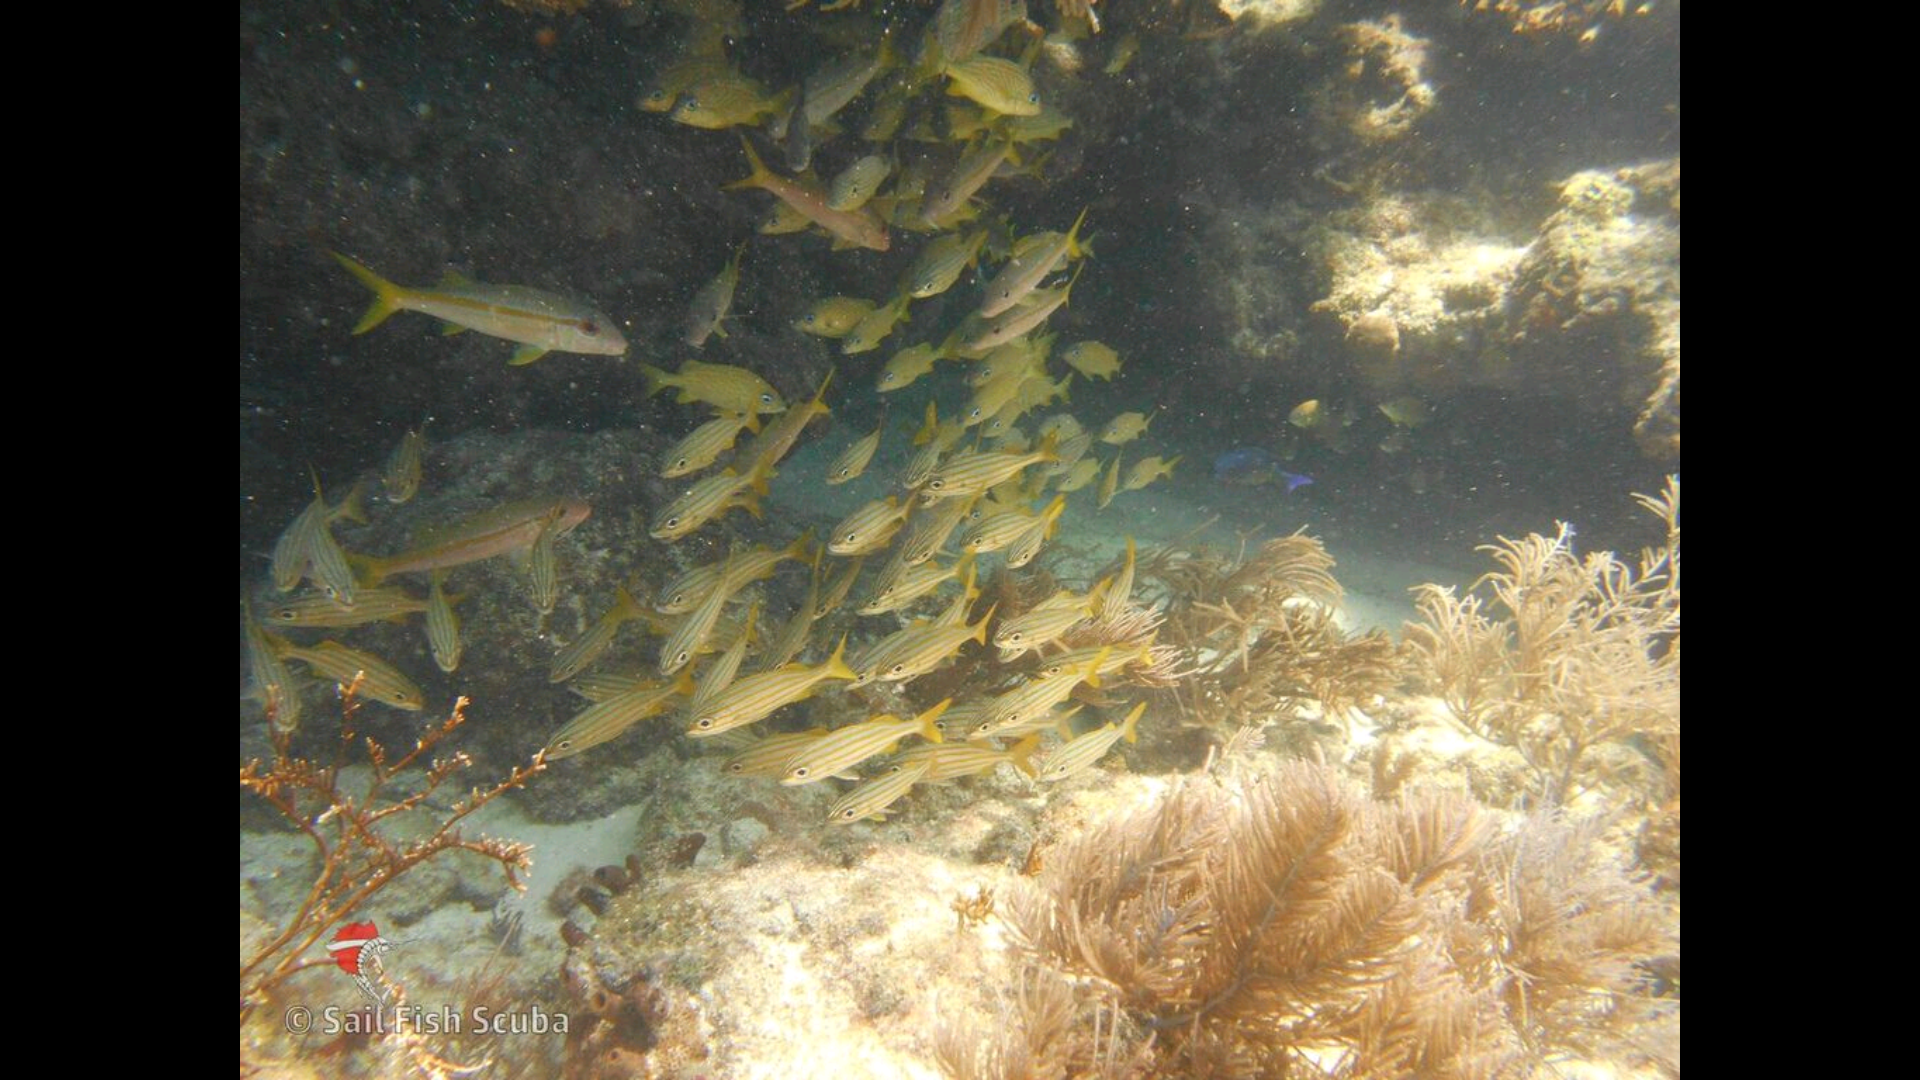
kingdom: Animalia
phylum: Chordata
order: Perciformes
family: Mullidae
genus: Mulloidichthys
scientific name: Mulloidichthys martinicus
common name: Yellow goatfish
